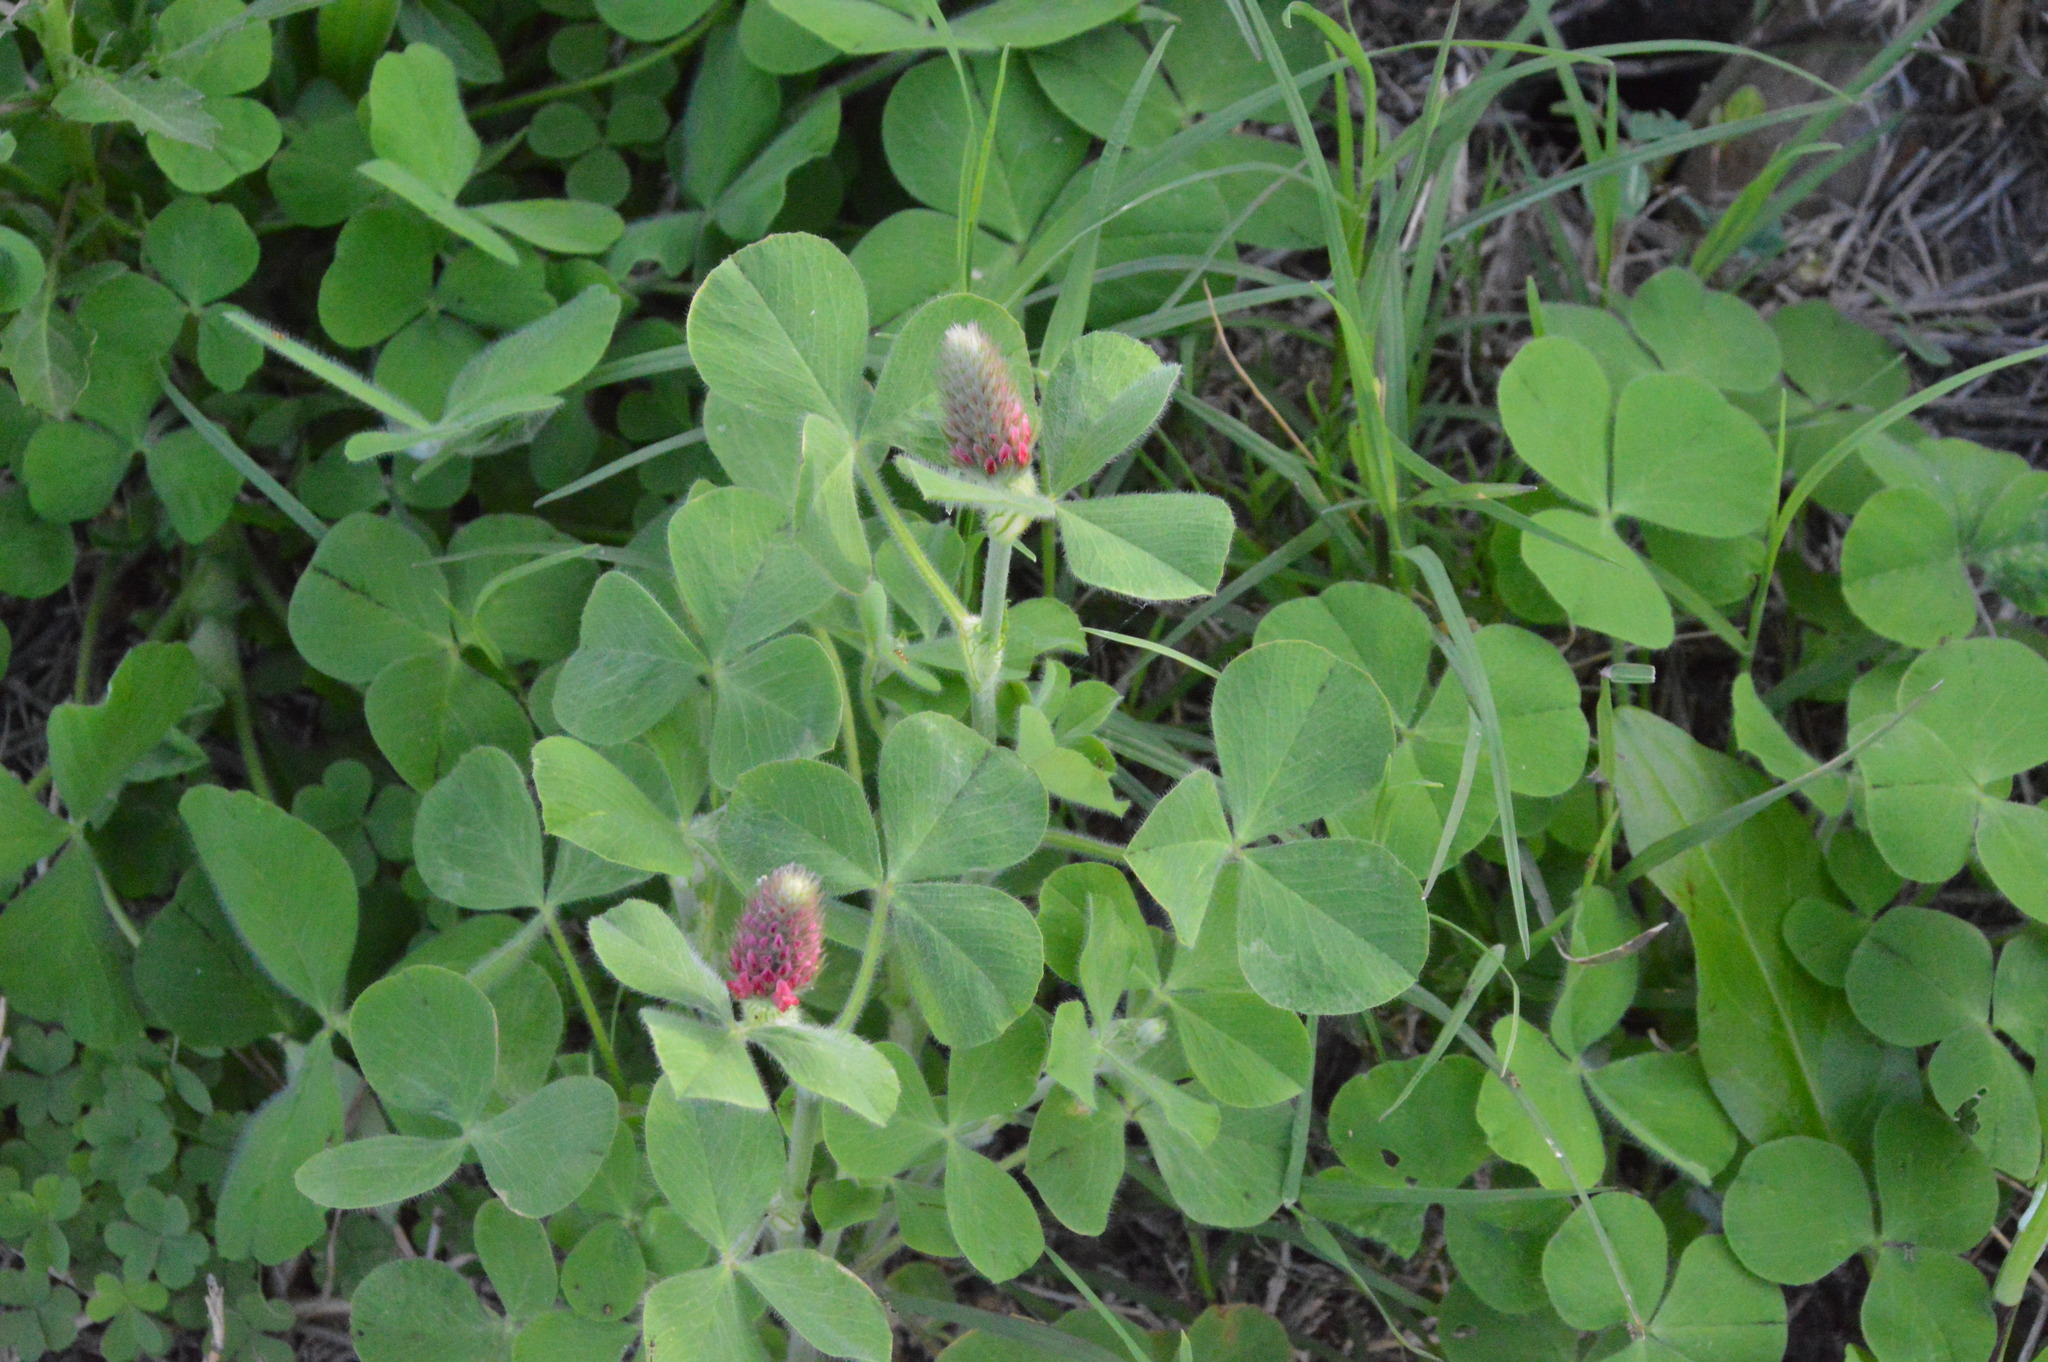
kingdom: Plantae
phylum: Tracheophyta
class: Magnoliopsida
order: Fabales
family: Fabaceae
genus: Trifolium
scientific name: Trifolium incarnatum
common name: Crimson clover
